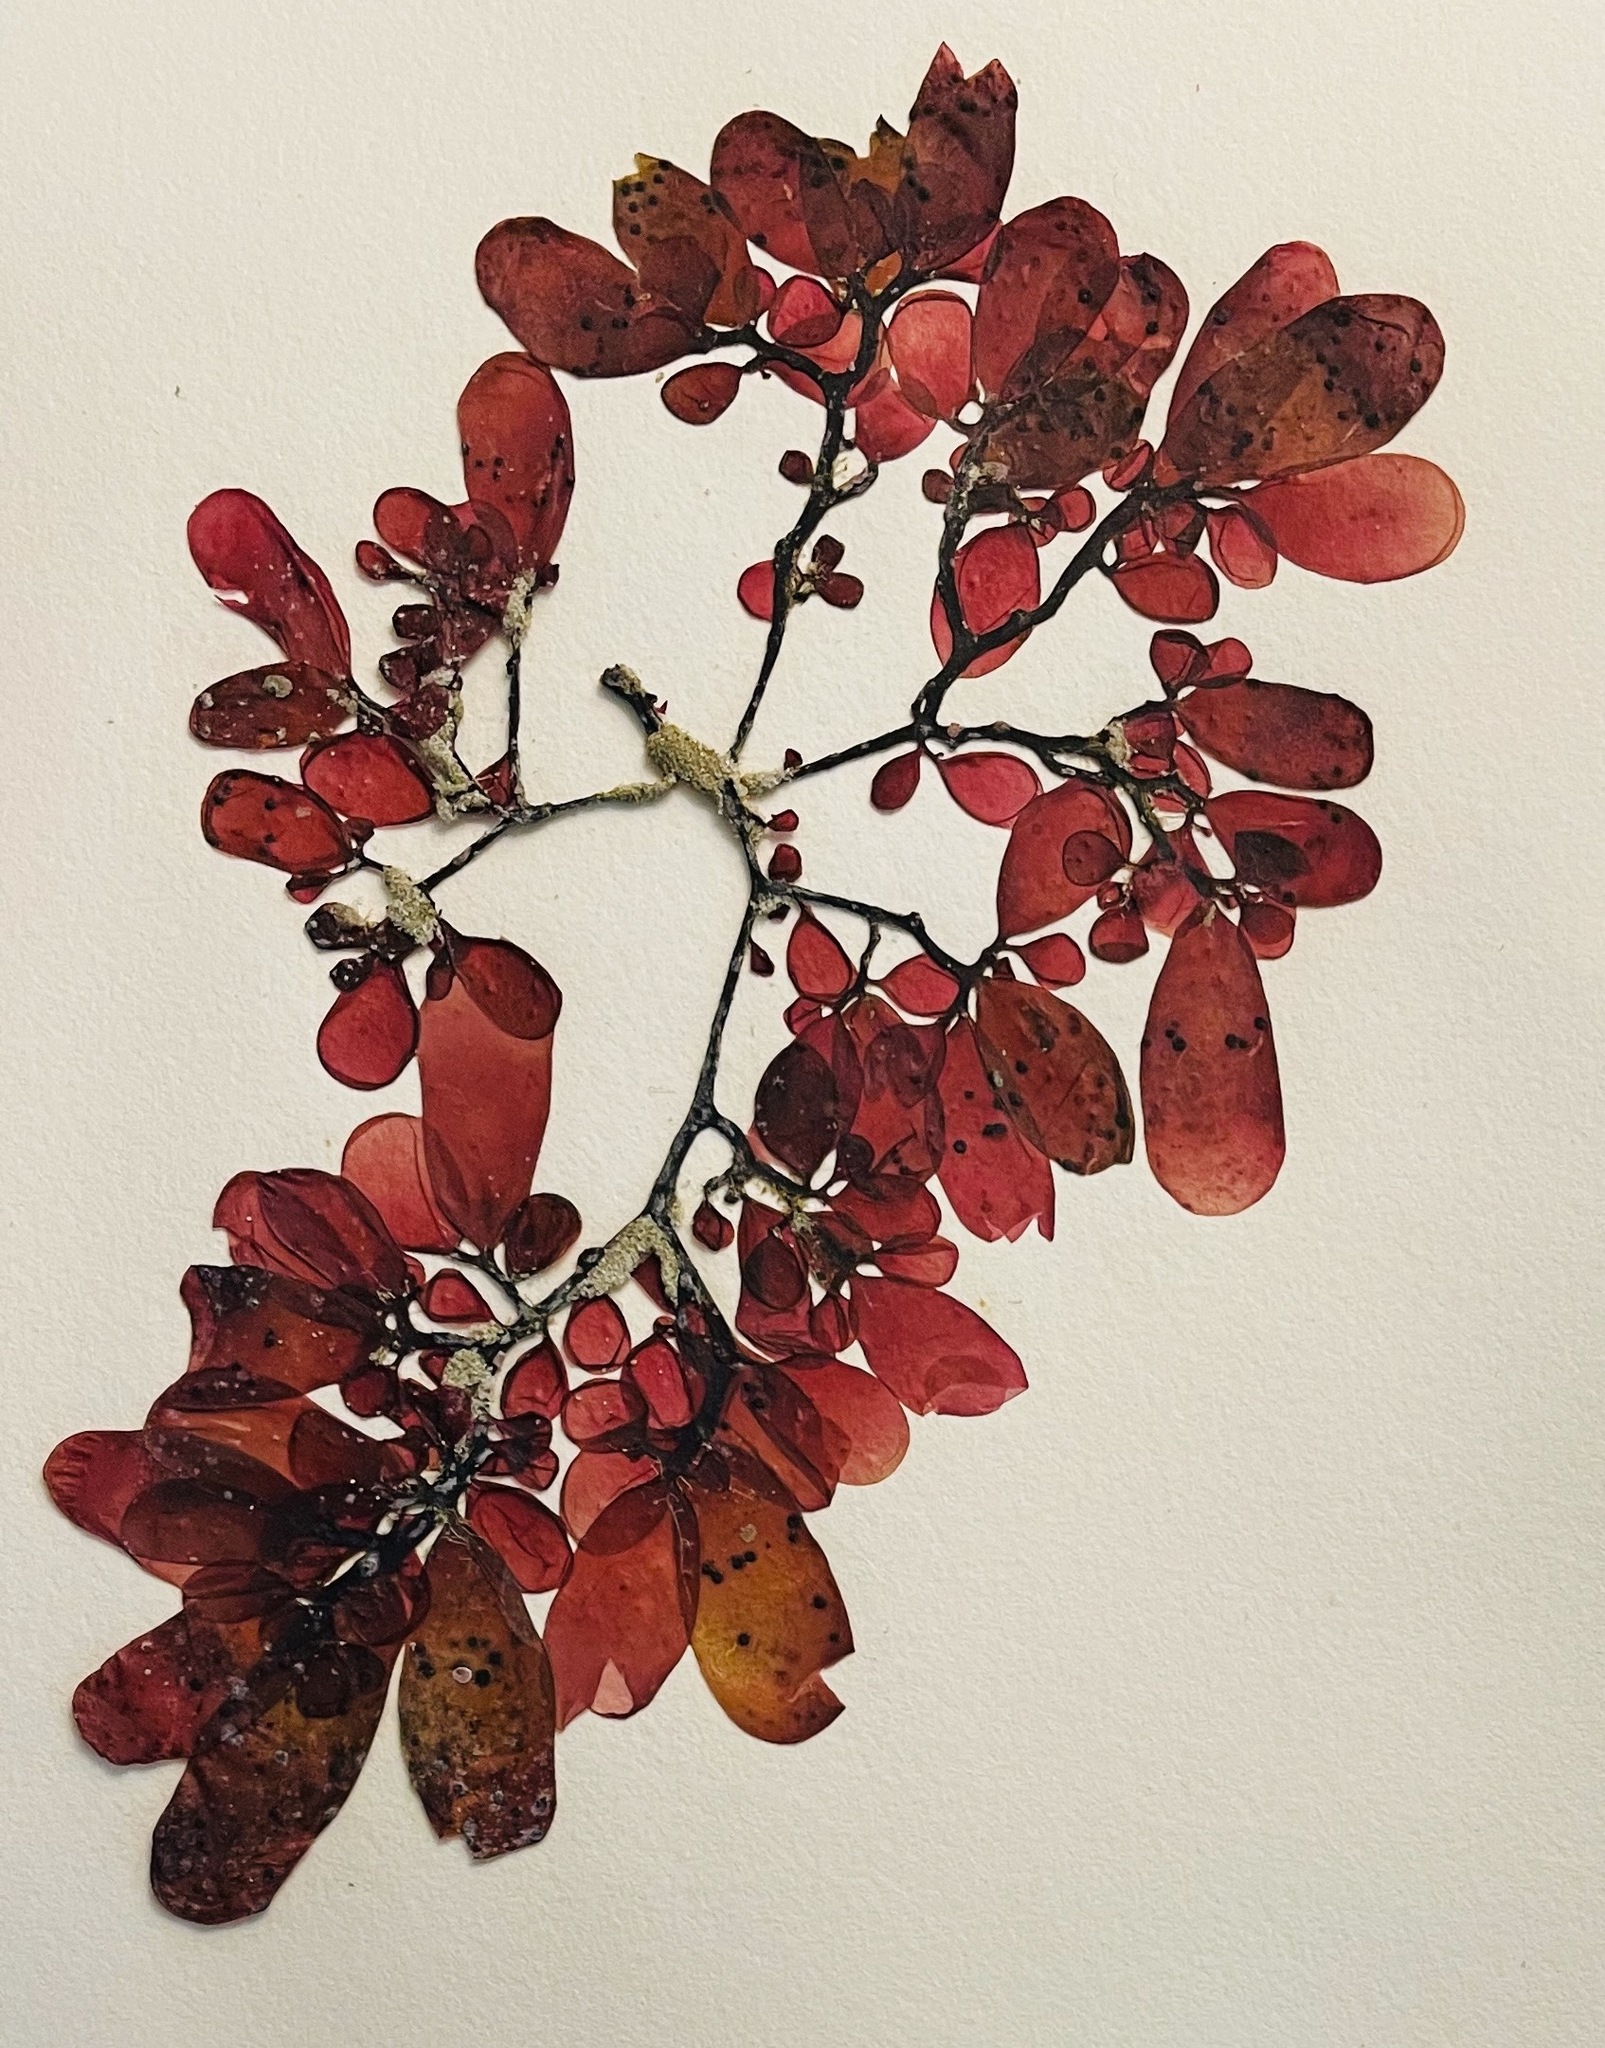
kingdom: Plantae
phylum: Rhodophyta
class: Florideophyceae
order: Rhodymeniales
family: Rhodymeniaceae
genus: Botryocladia
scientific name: Botryocladia pseudodichotoma
